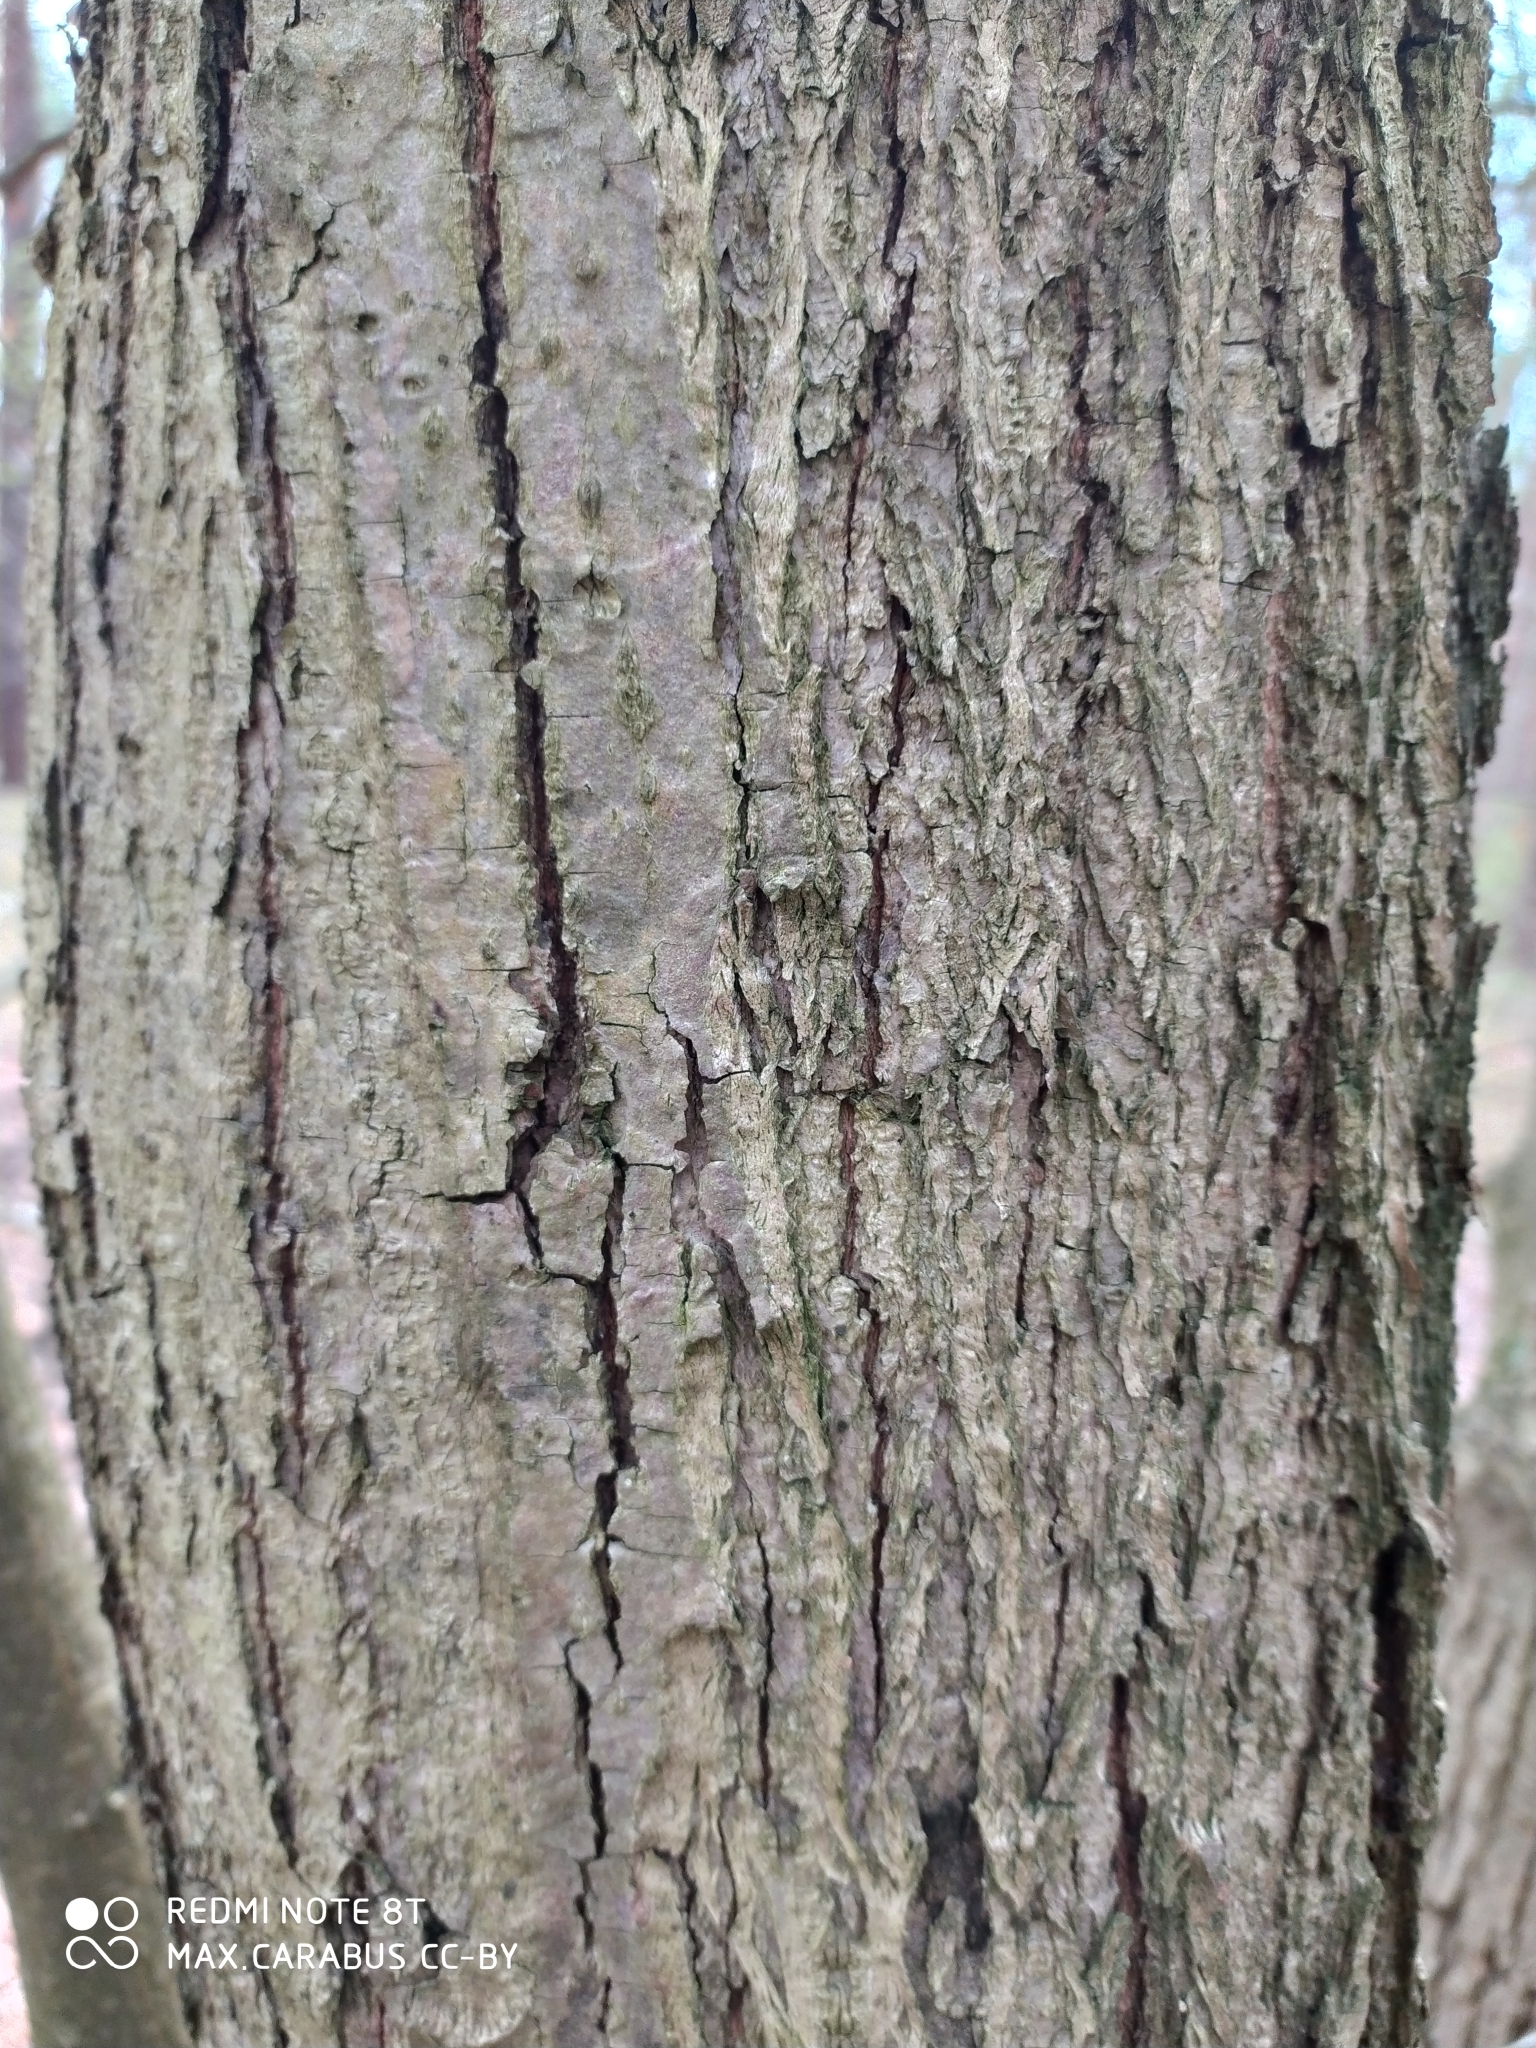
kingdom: Plantae
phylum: Tracheophyta
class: Magnoliopsida
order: Malvales
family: Malvaceae
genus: Tilia
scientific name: Tilia cordata
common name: Small-leaved lime
